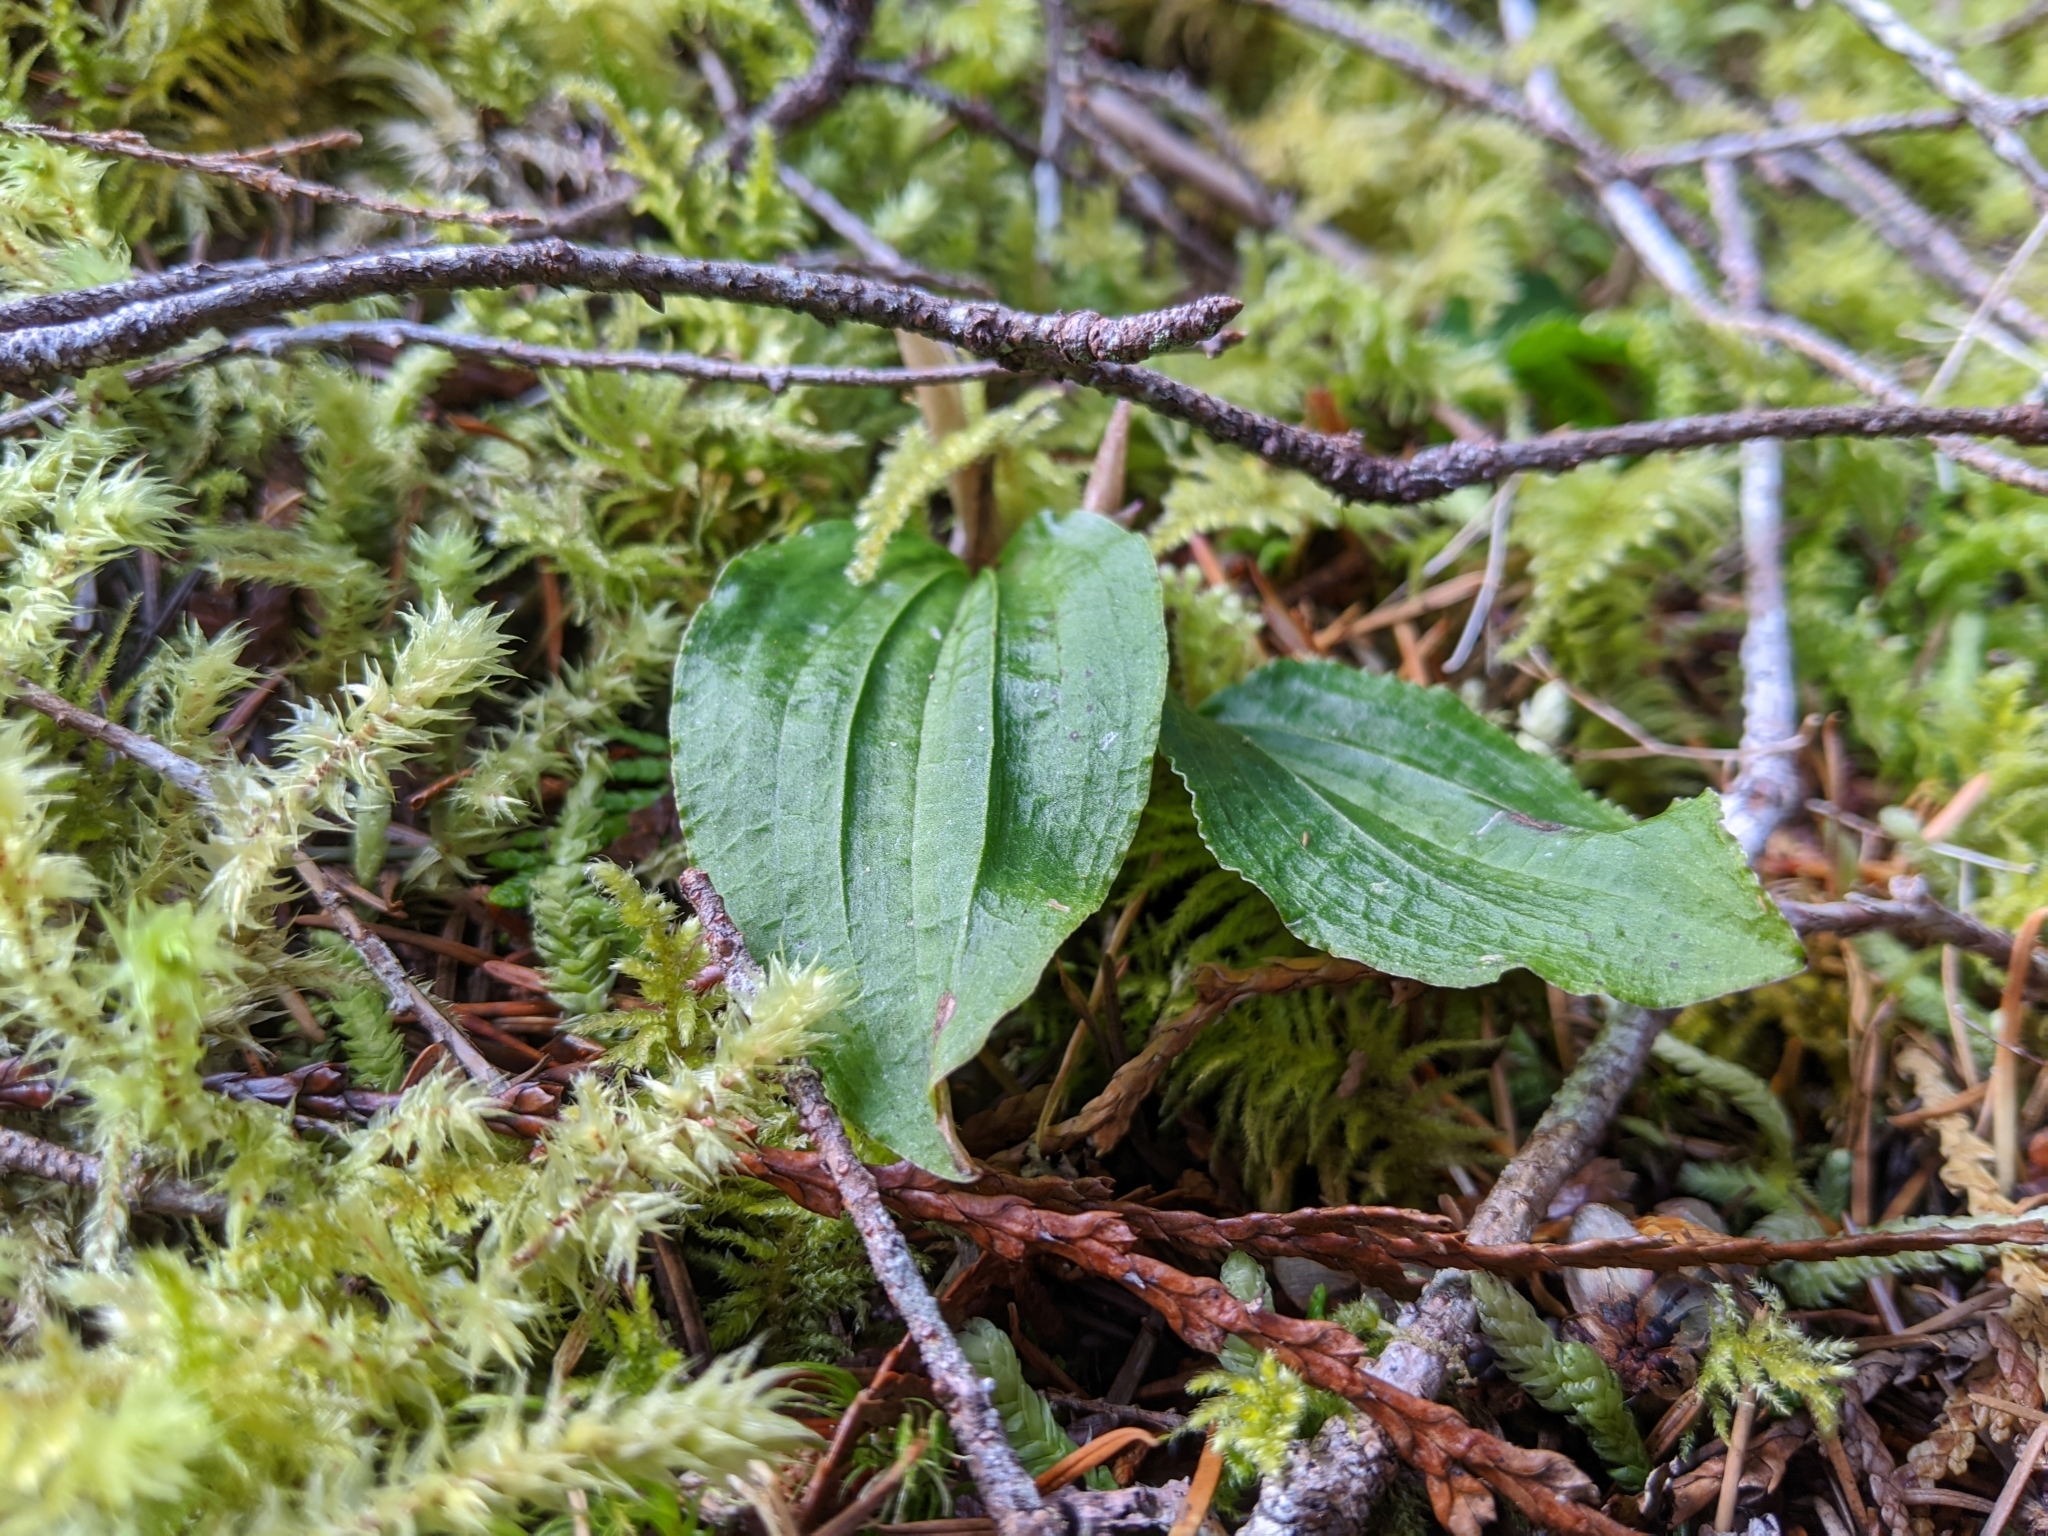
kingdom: Plantae
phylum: Tracheophyta
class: Liliopsida
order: Asparagales
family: Orchidaceae
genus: Calypso
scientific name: Calypso bulbosa
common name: Calypso
